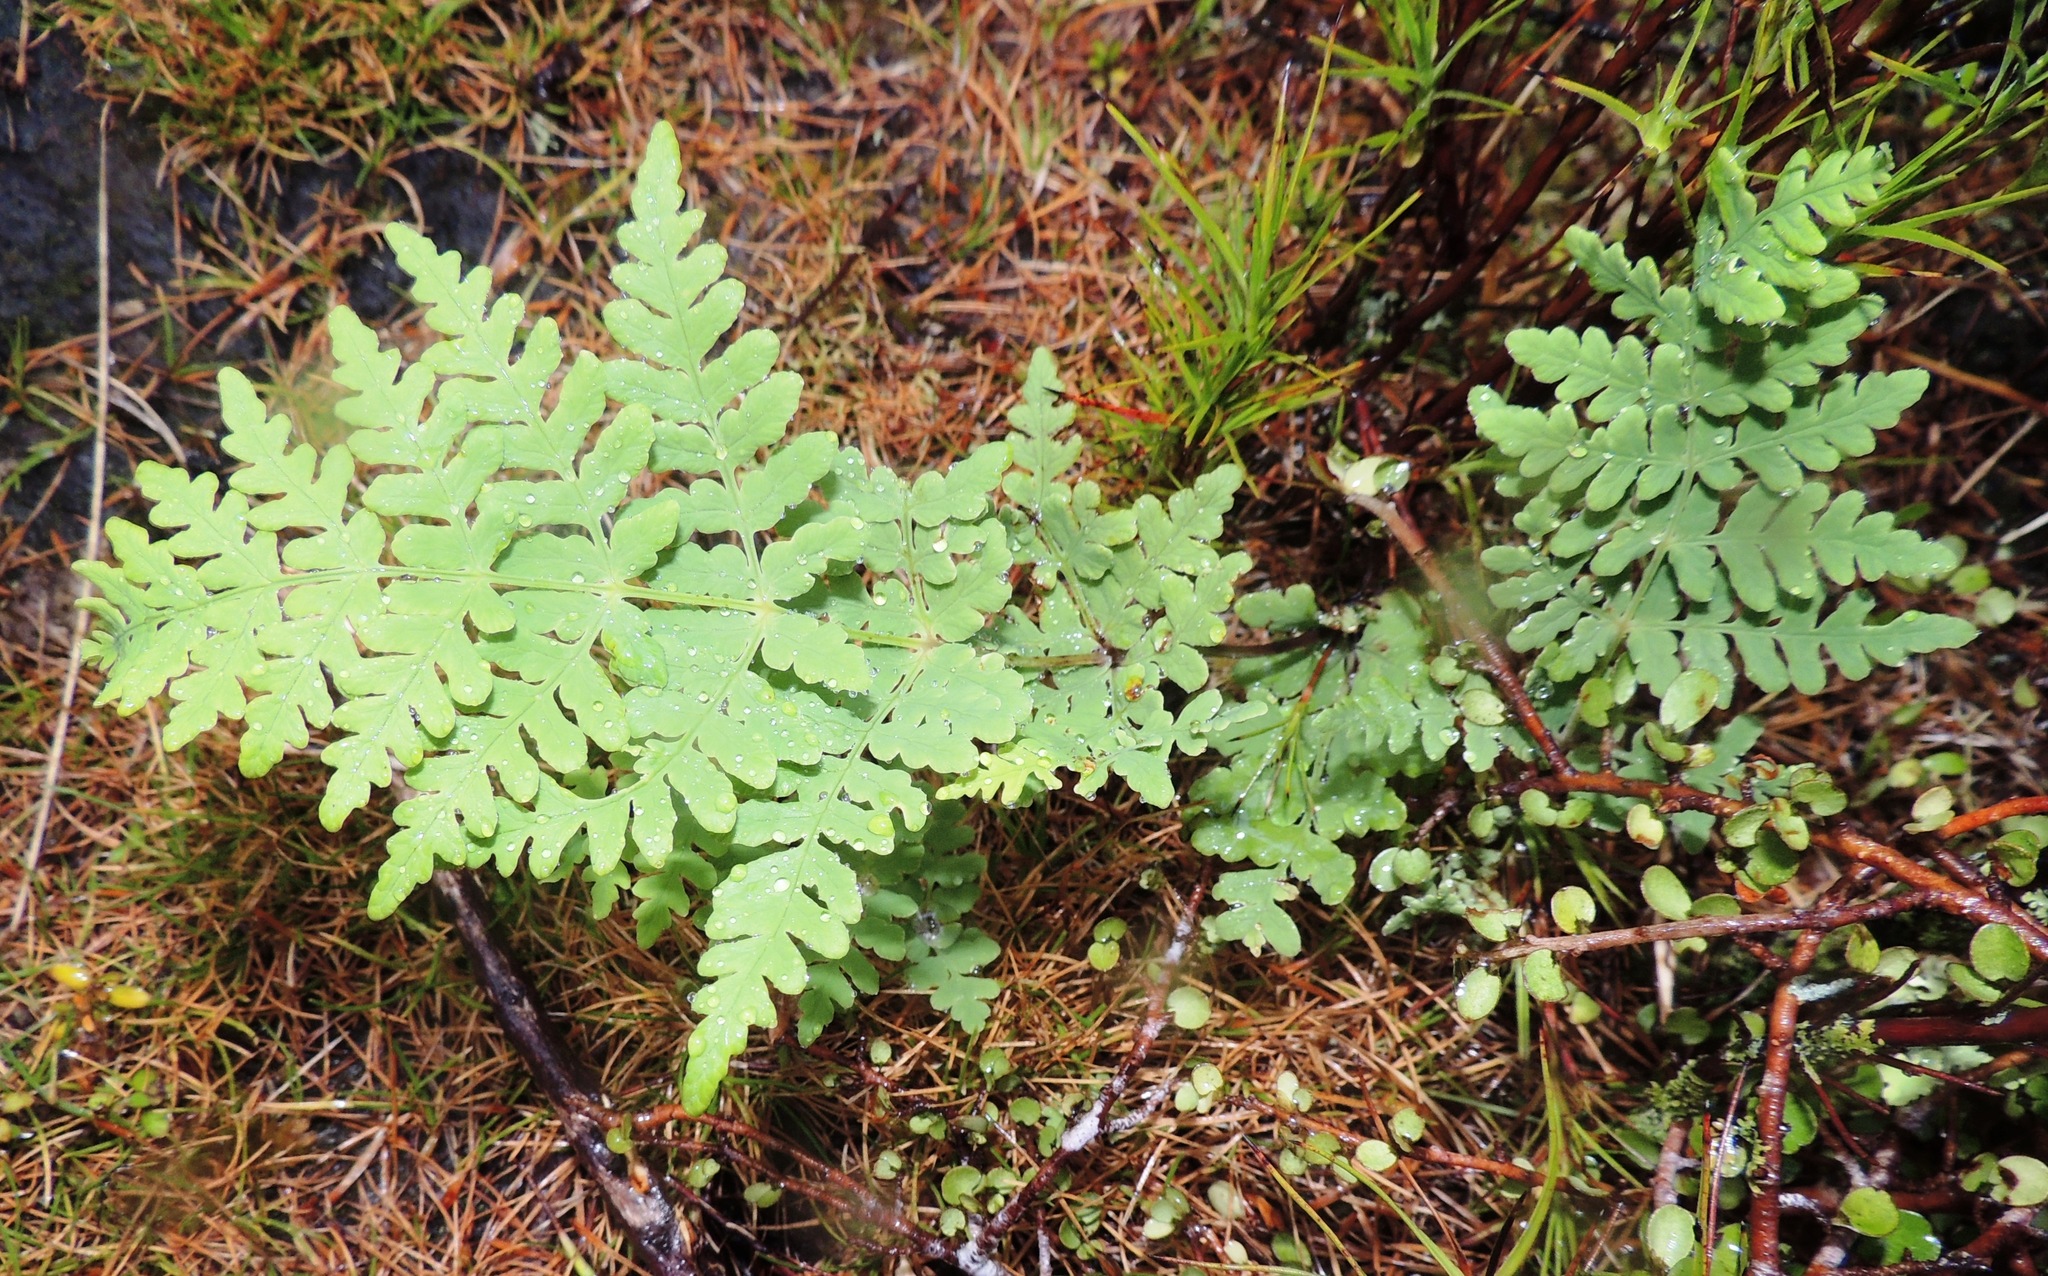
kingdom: Plantae
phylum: Tracheophyta
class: Polypodiopsida
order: Polypodiales
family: Dennstaedtiaceae
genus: Histiopteris
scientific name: Histiopteris incisa
